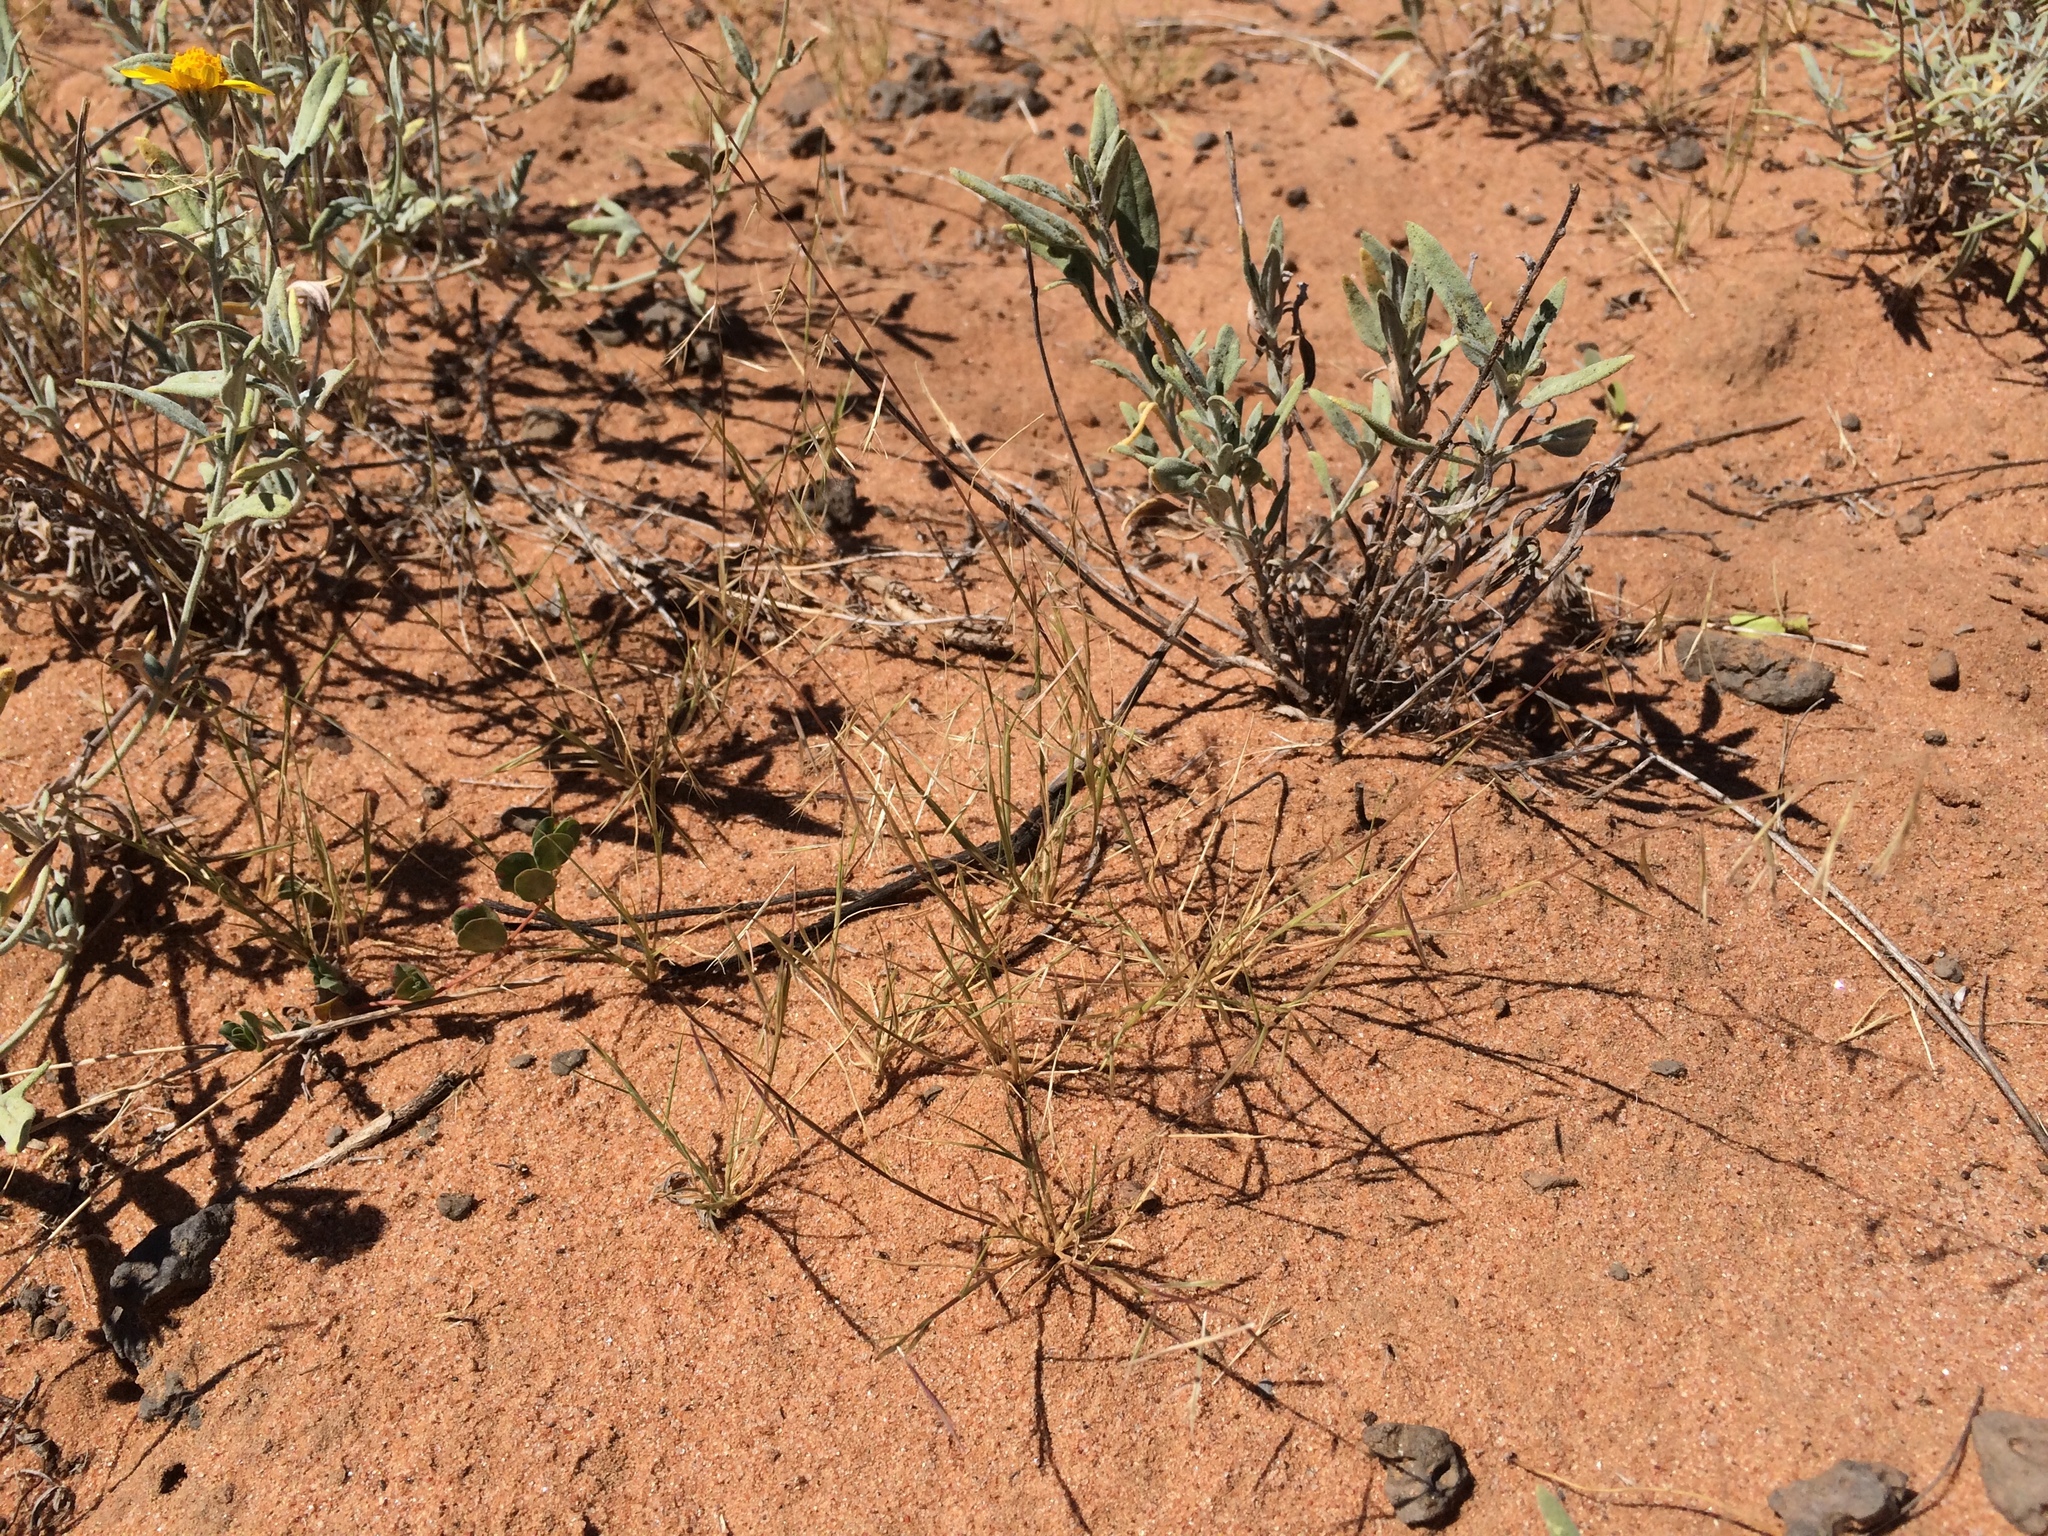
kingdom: Plantae
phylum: Tracheophyta
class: Liliopsida
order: Poales
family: Poaceae
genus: Bouteloua
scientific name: Bouteloua aristidoides
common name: Needle grama
